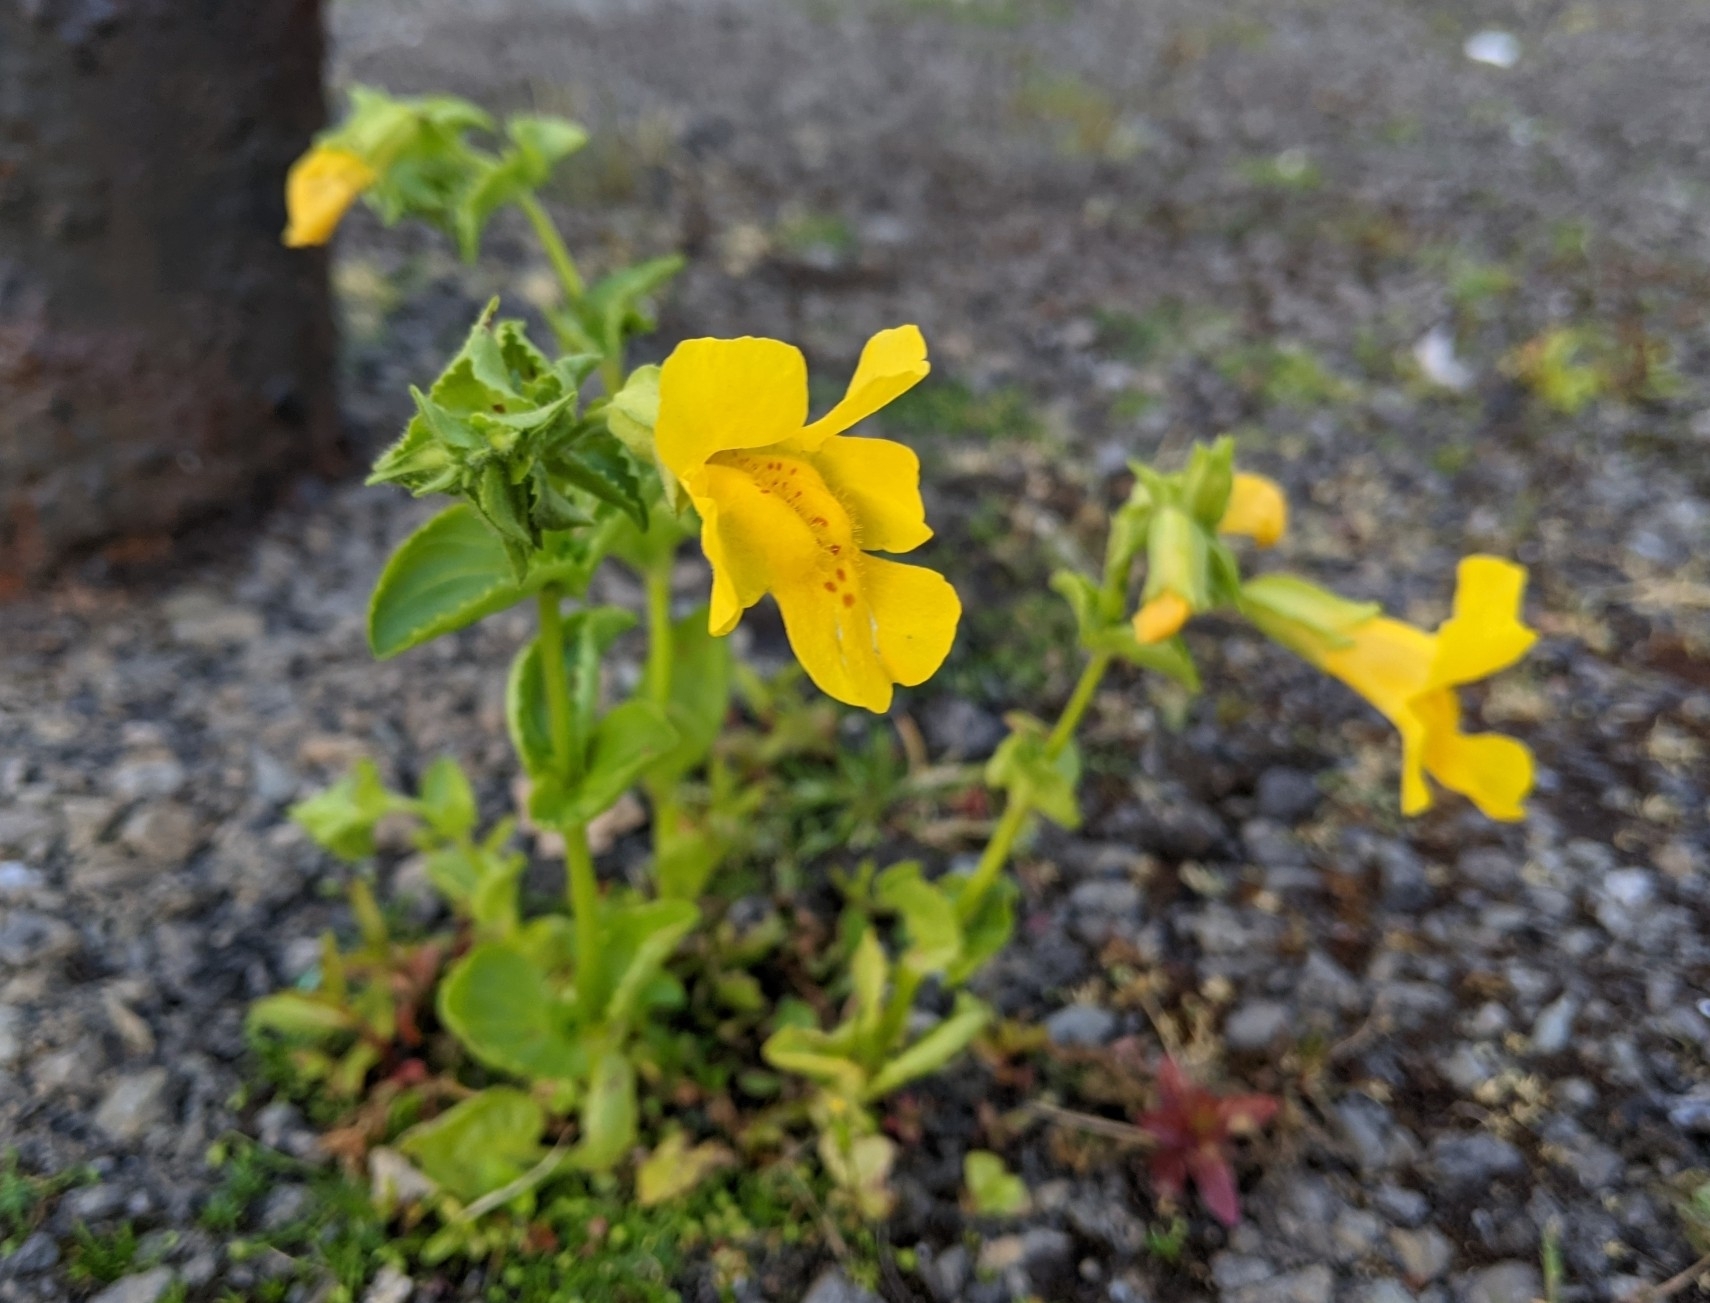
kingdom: Plantae
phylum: Tracheophyta
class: Magnoliopsida
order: Lamiales
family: Phrymaceae
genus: Erythranthe
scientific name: Erythranthe guttata
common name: Monkeyflower
